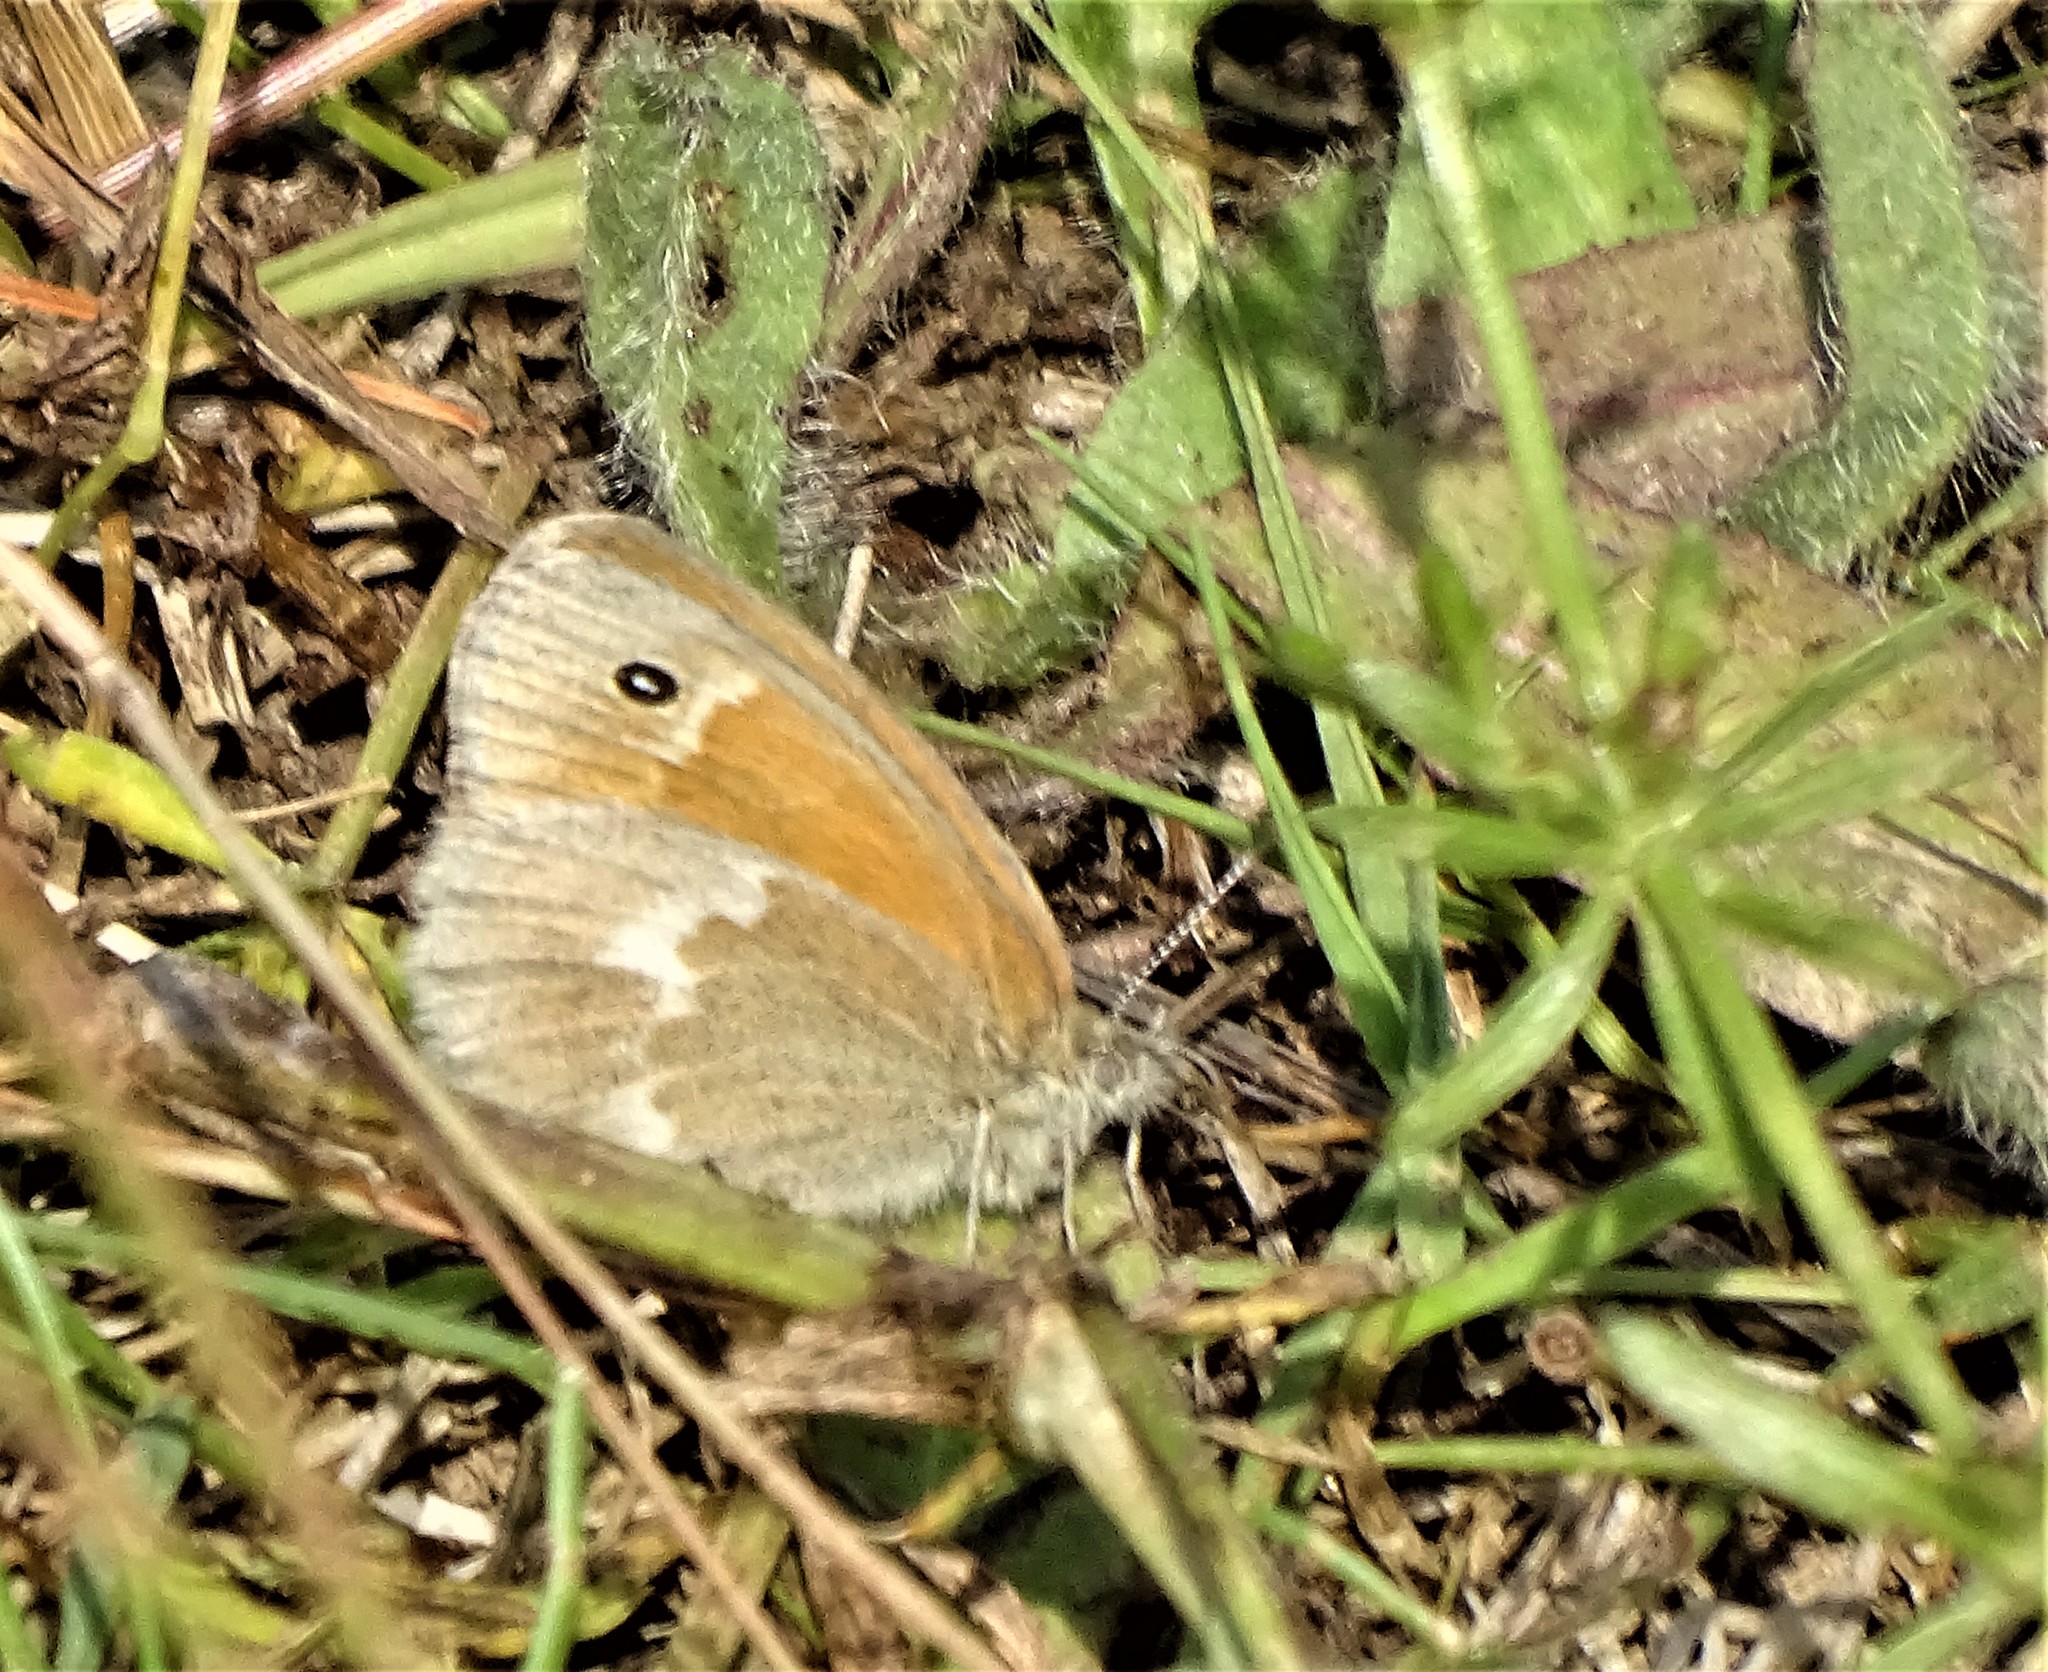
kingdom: Animalia
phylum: Arthropoda
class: Insecta
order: Lepidoptera
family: Nymphalidae
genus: Coenonympha
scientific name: Coenonympha california
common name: Common ringlet
